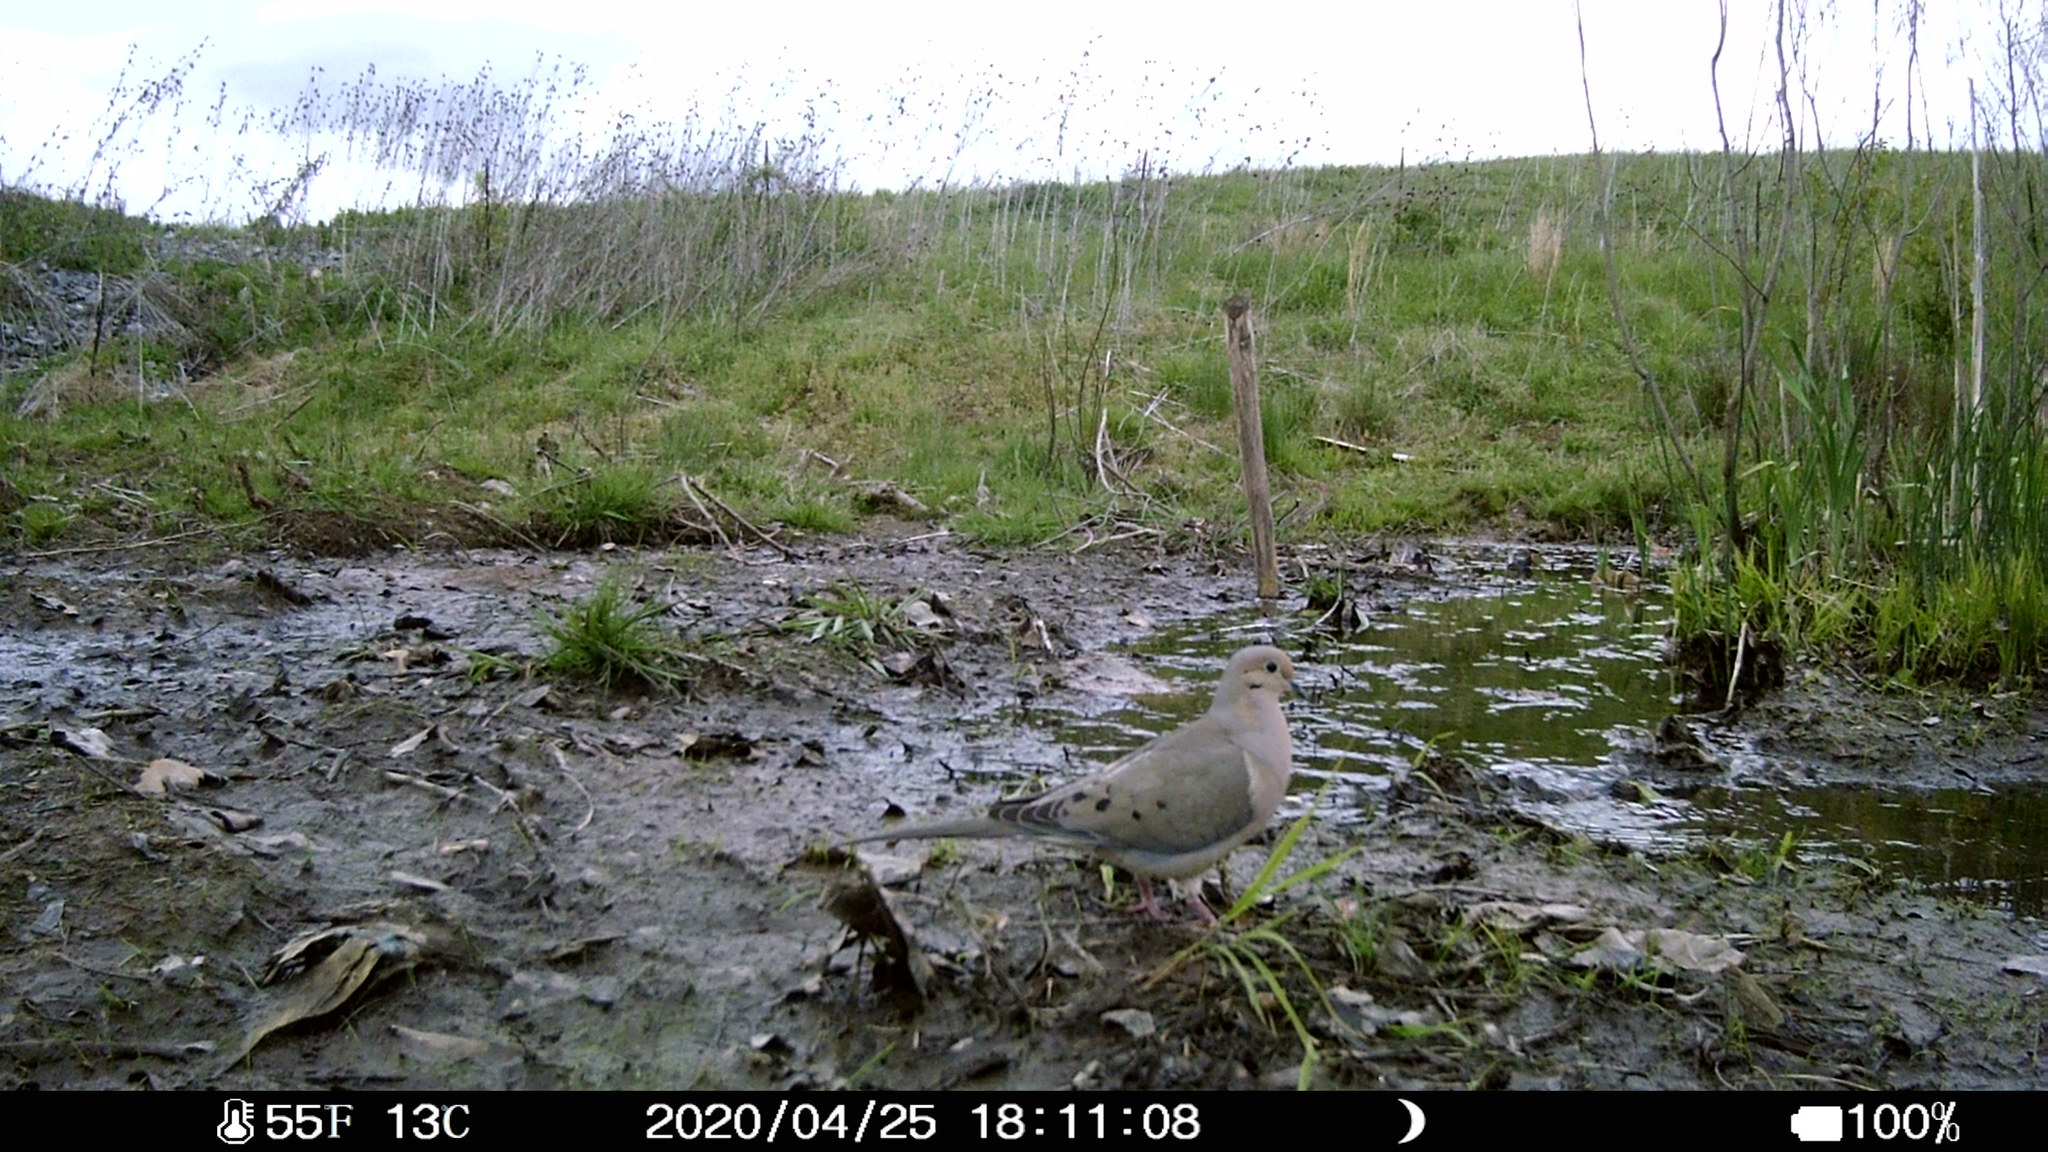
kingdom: Animalia
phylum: Chordata
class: Aves
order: Columbiformes
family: Columbidae
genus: Zenaida
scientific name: Zenaida macroura
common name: Mourning dove
